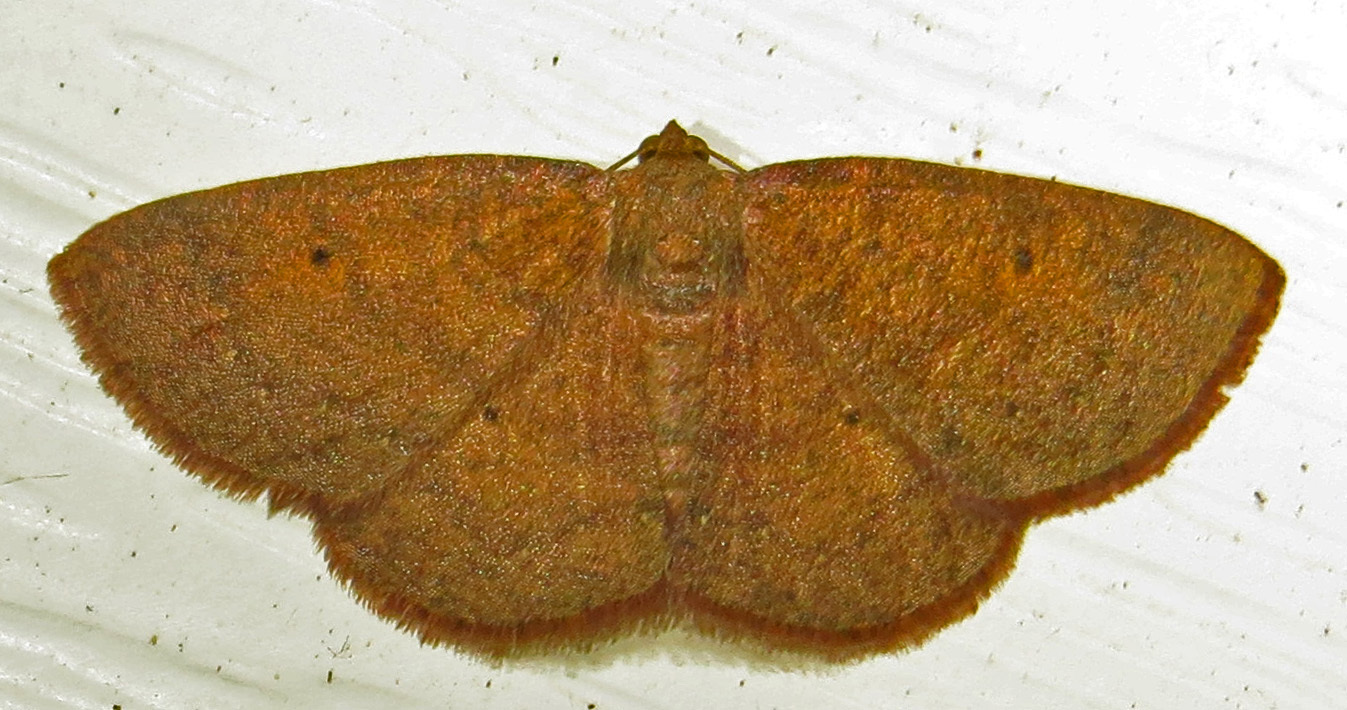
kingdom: Animalia
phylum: Arthropoda
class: Insecta
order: Lepidoptera
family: Geometridae
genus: Ilexia
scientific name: Ilexia intractata
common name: Black-dotted ruddy moth
